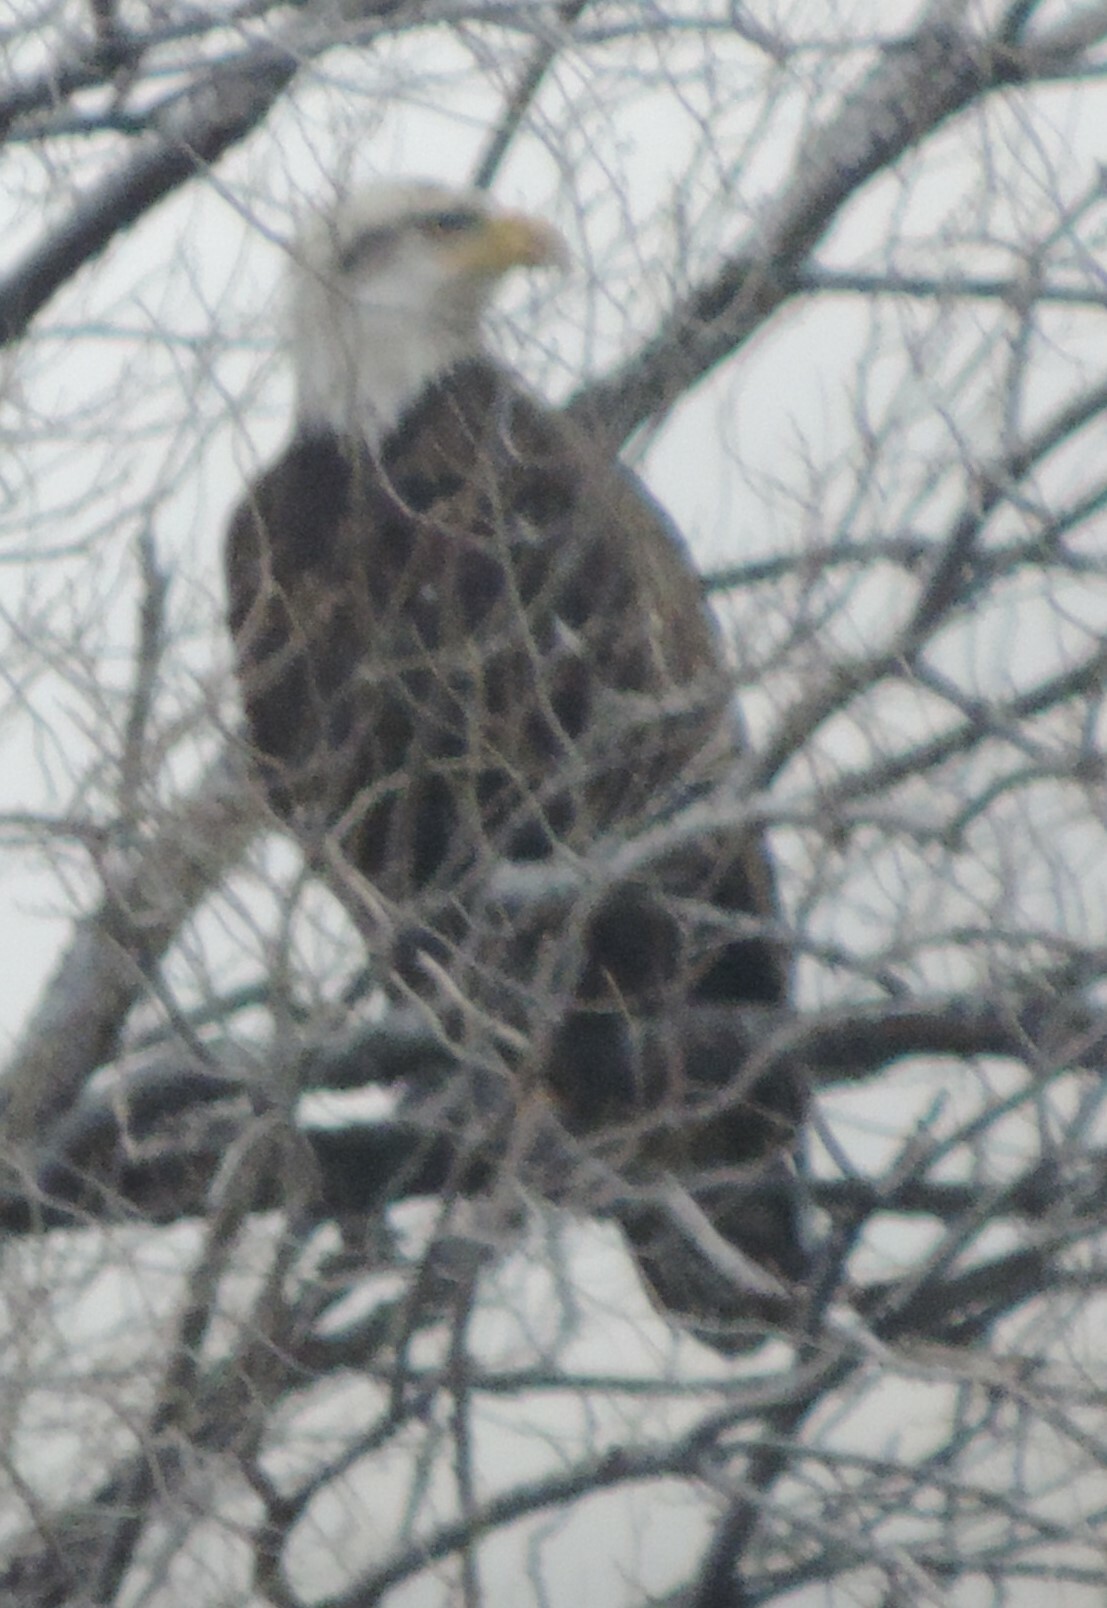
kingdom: Animalia
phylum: Chordata
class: Aves
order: Accipitriformes
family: Accipitridae
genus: Haliaeetus
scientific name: Haliaeetus leucocephalus
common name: Bald eagle
